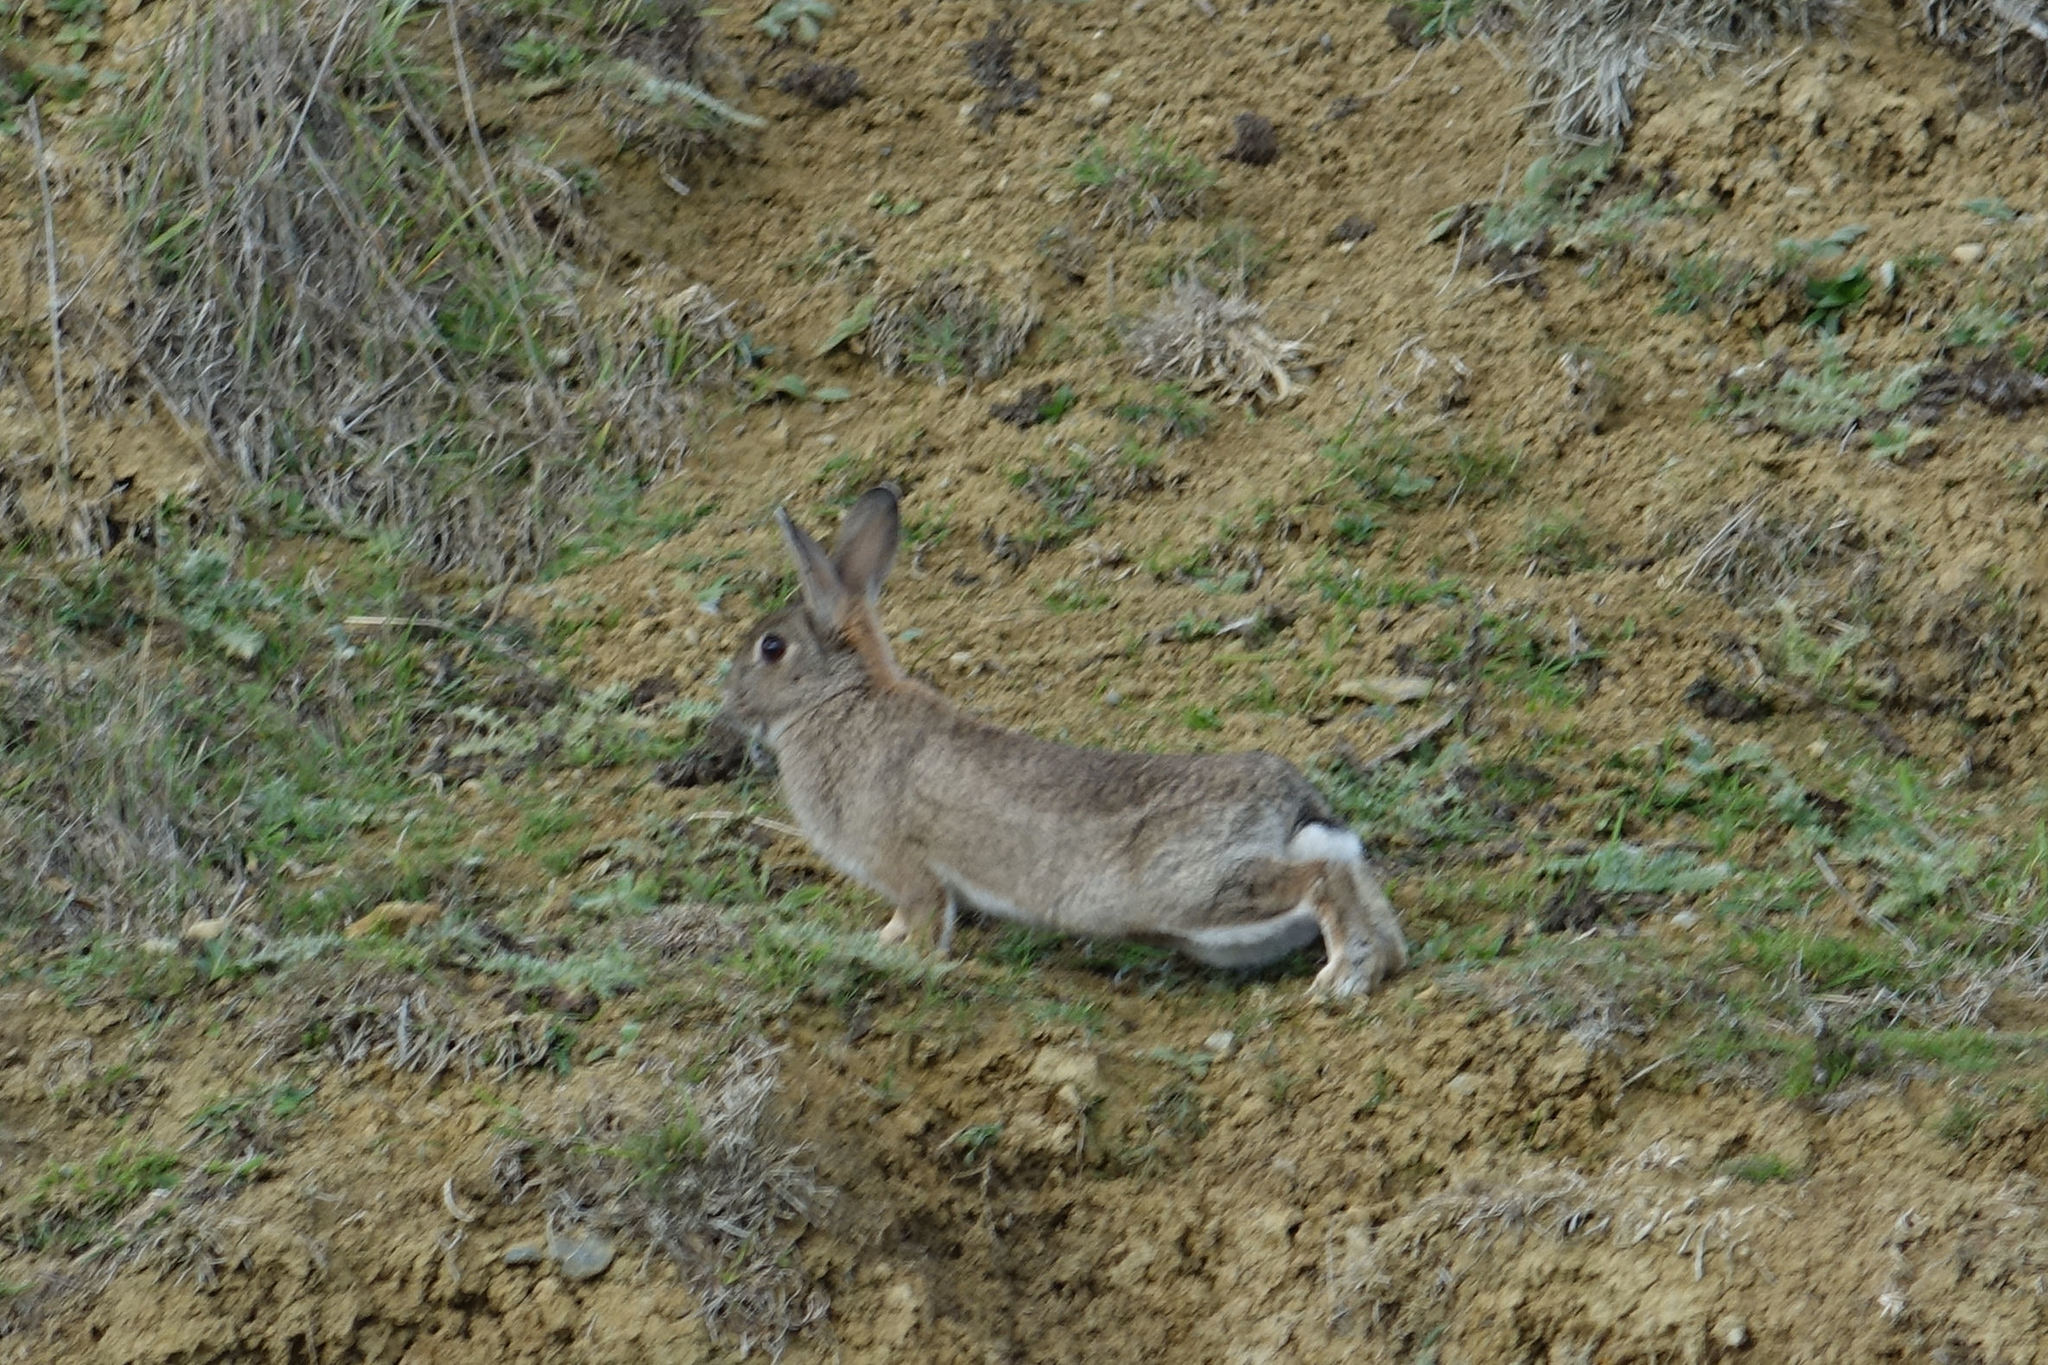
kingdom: Animalia
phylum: Chordata
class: Mammalia
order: Lagomorpha
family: Leporidae
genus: Oryctolagus
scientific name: Oryctolagus cuniculus
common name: European rabbit
